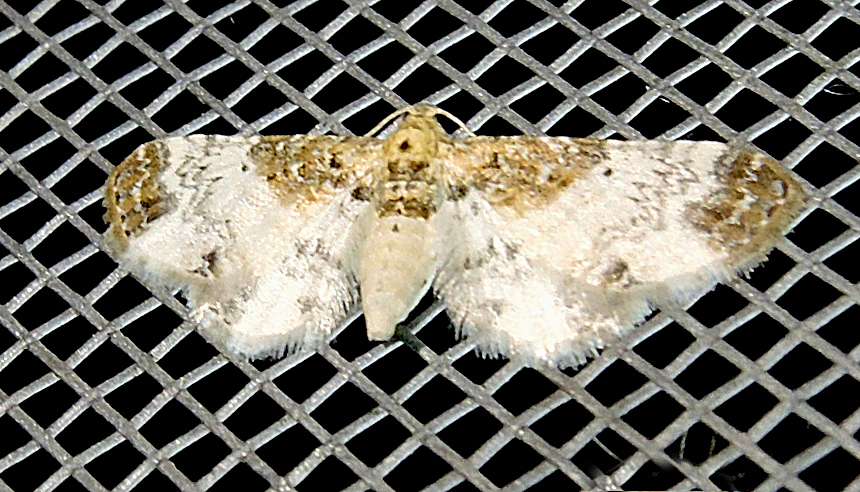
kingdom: Animalia
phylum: Arthropoda
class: Insecta
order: Lepidoptera
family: Geometridae
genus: Eupithecia
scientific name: Eupithecia breviculata
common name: Rusty-shouldered pug
